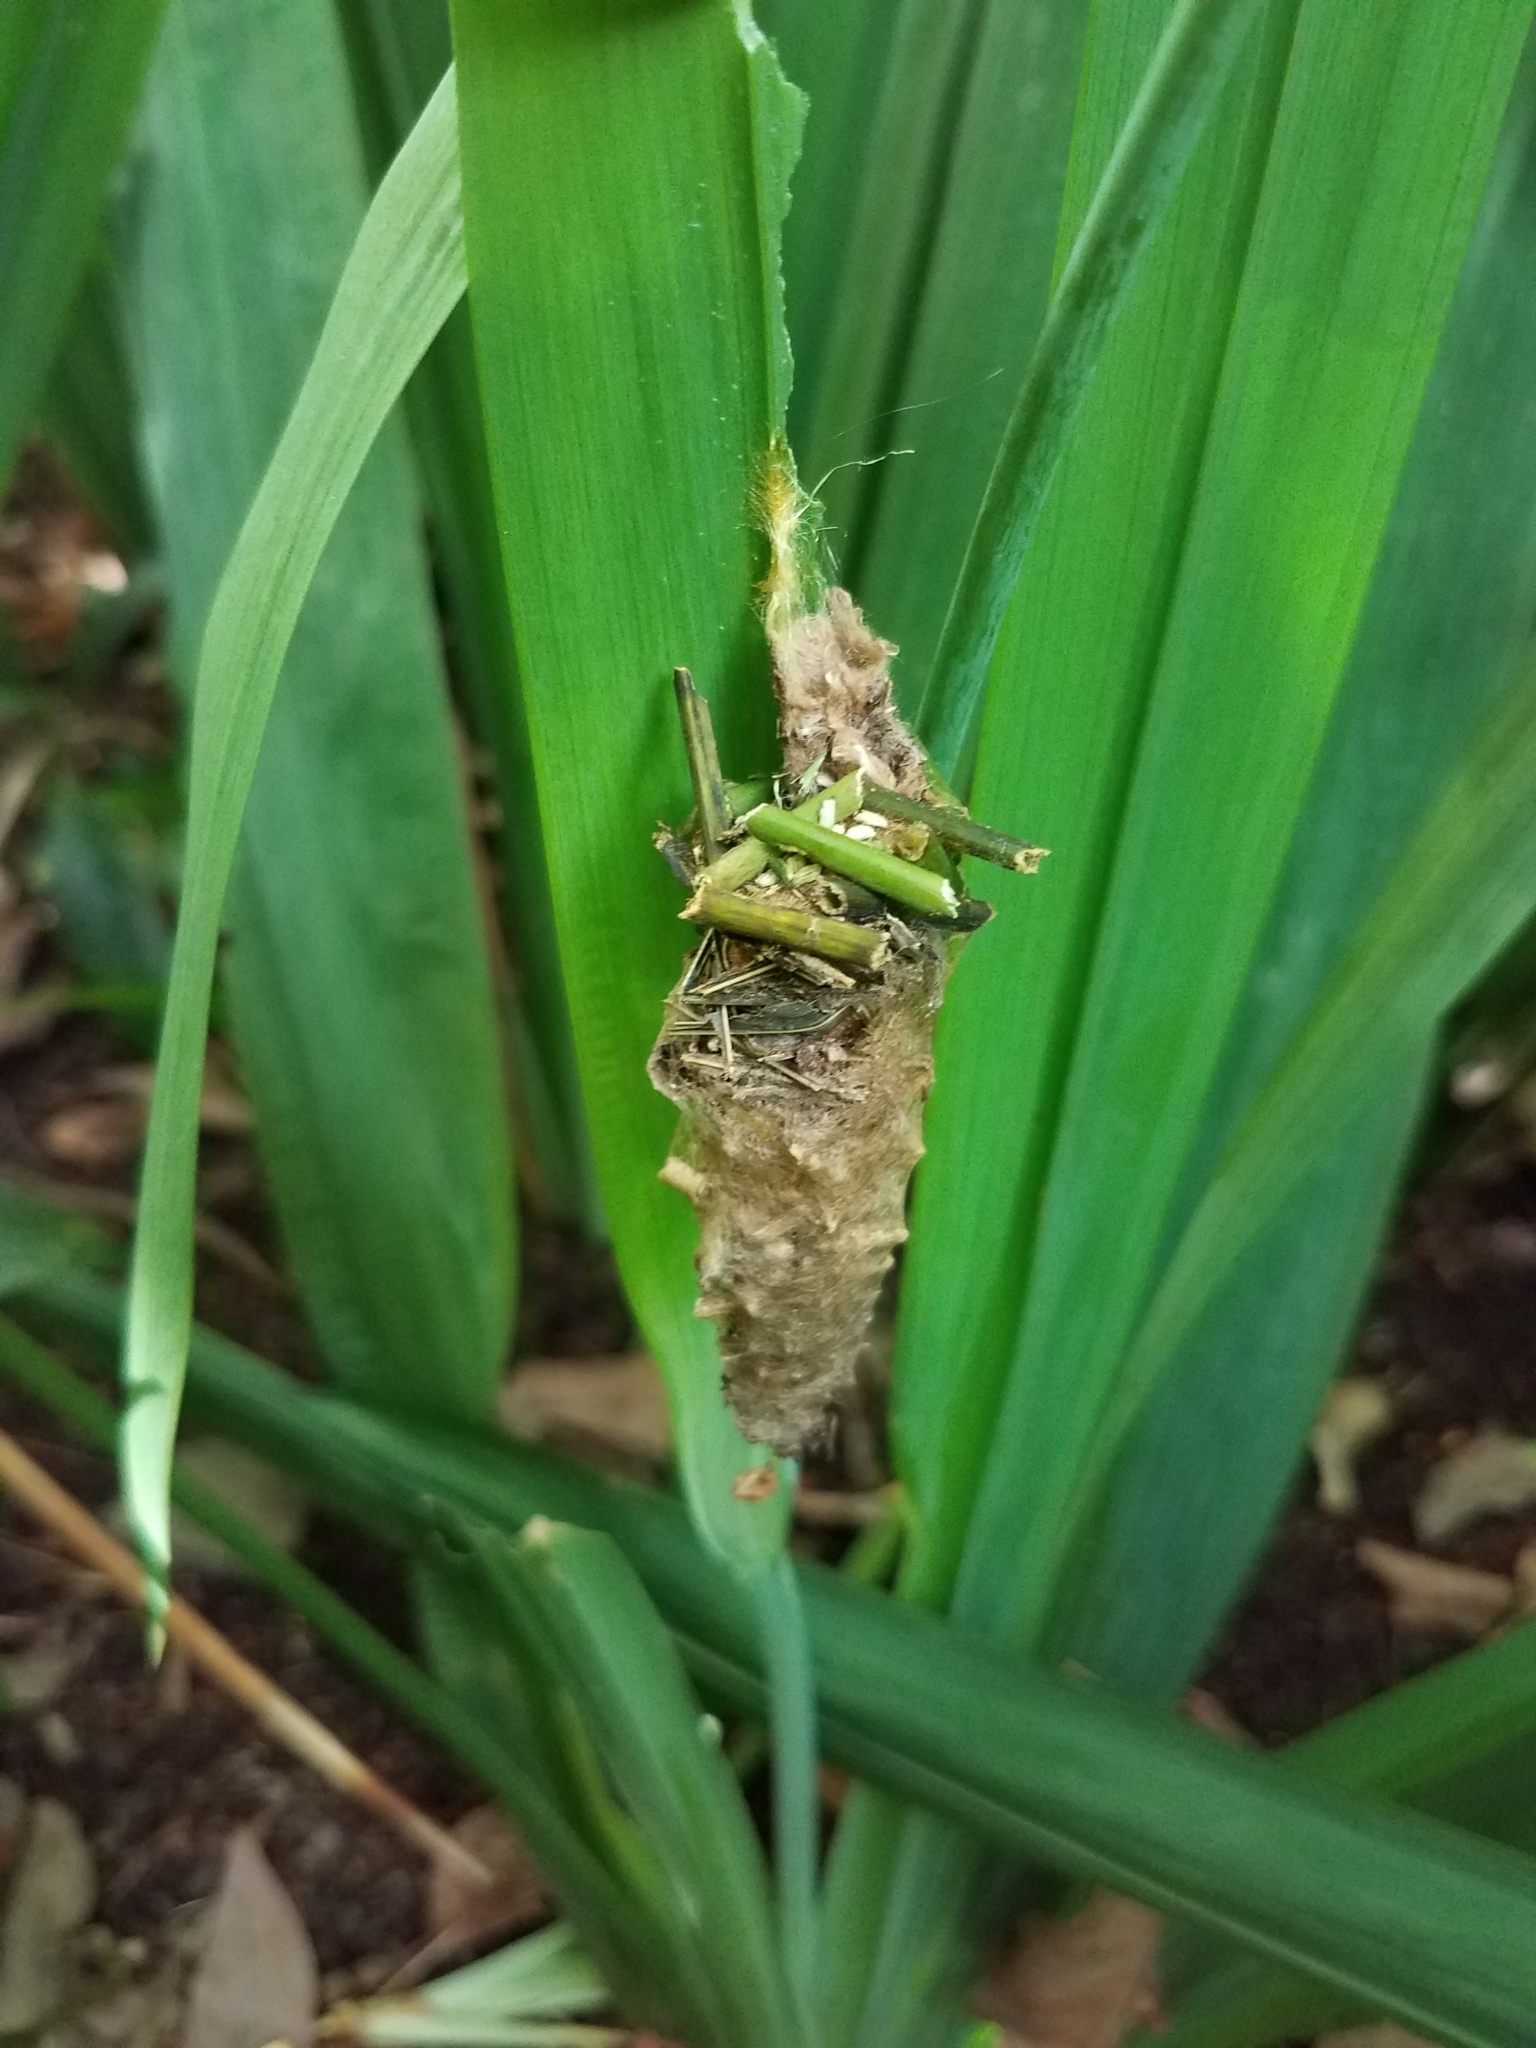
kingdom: Animalia
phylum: Arthropoda
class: Insecta
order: Lepidoptera
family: Psychidae
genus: Oiketicus
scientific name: Oiketicus kirbyi
